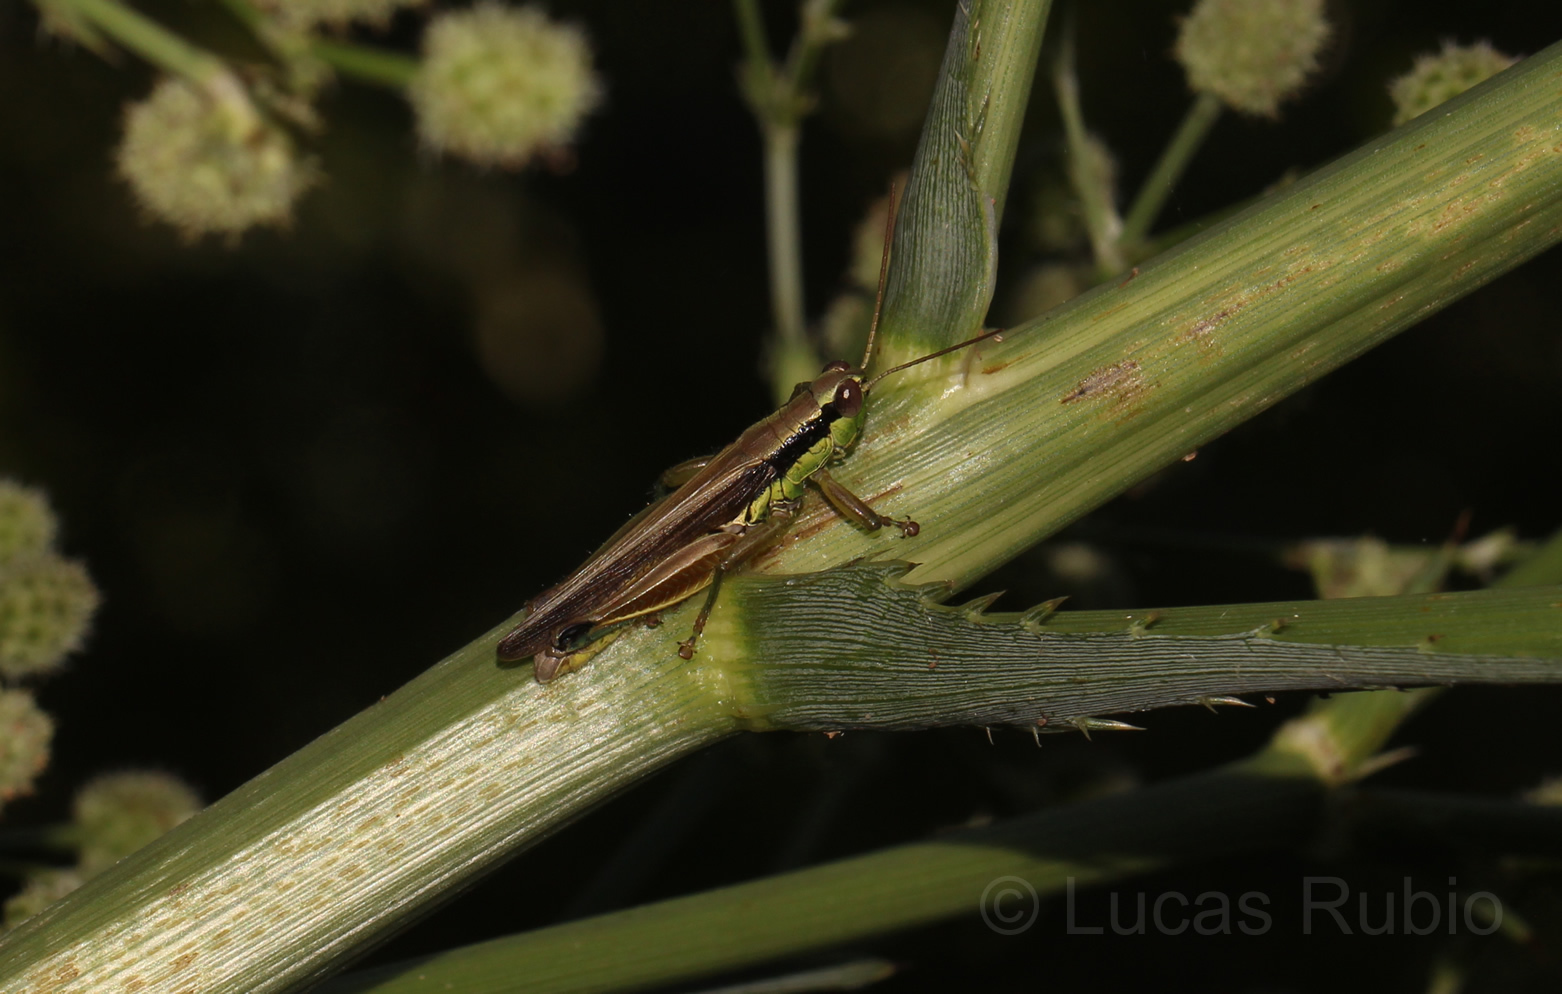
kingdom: Animalia
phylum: Arthropoda
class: Insecta
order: Orthoptera
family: Acrididae
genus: Scotussa
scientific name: Scotussa impudica
